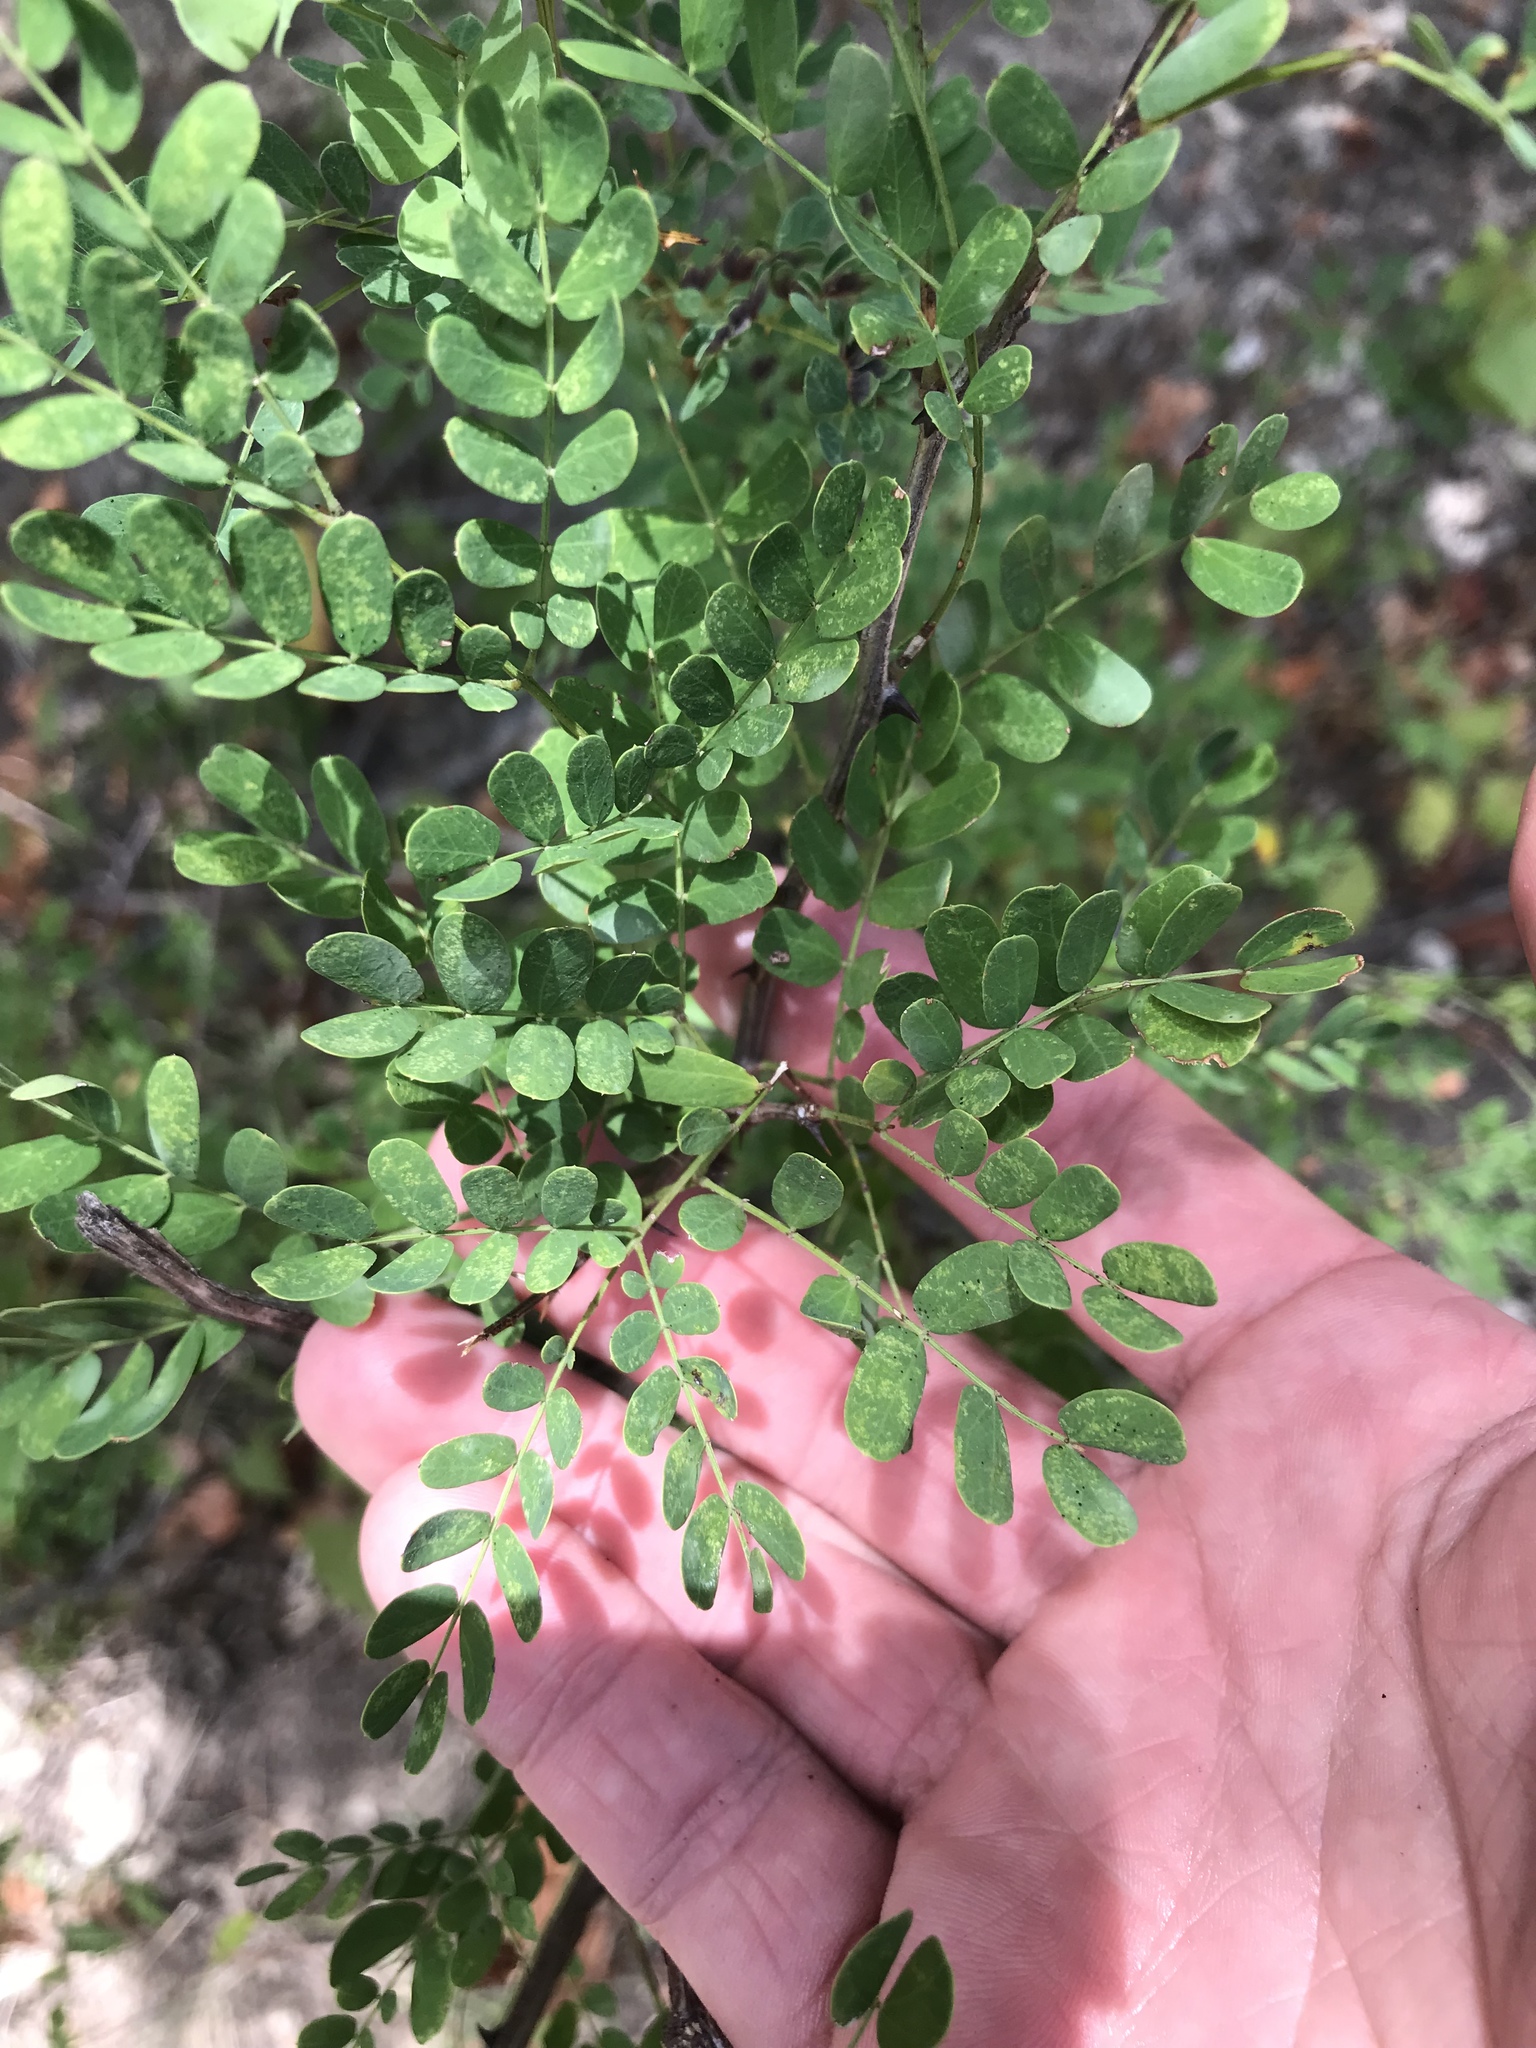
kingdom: Plantae
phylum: Tracheophyta
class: Magnoliopsida
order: Fabales
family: Fabaceae
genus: Senegalia
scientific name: Senegalia roemeriana
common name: Roemer's acacia
